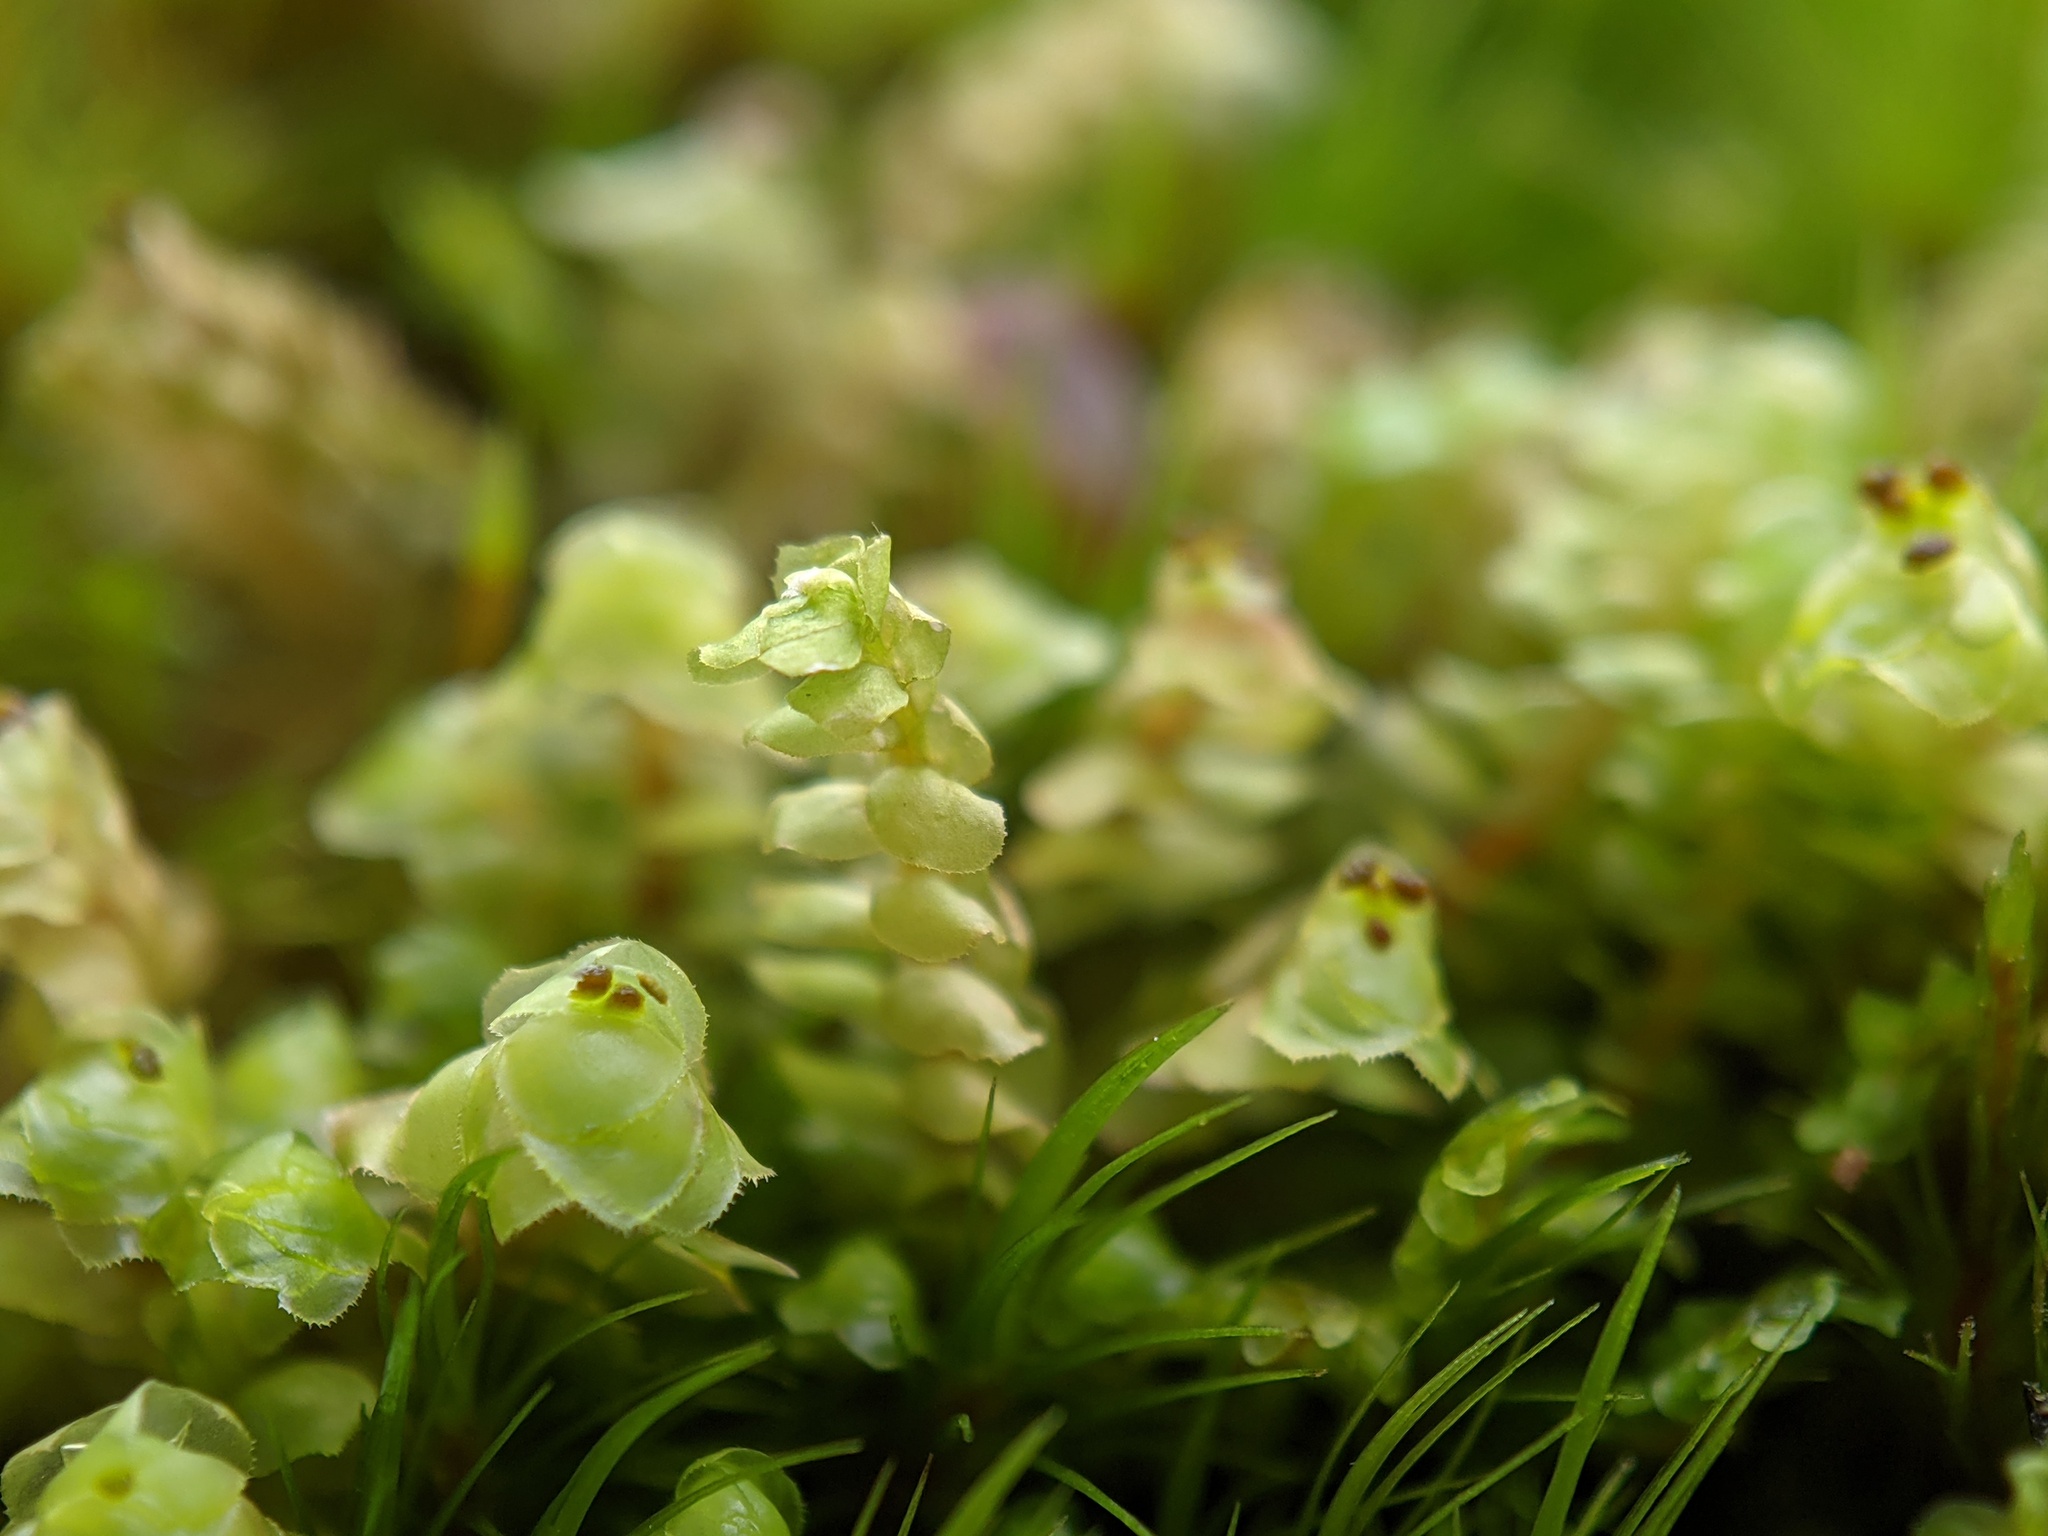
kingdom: Plantae
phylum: Marchantiophyta
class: Jungermanniopsida
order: Jungermanniales
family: Scapaniaceae
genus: Scapania
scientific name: Scapania nemorea
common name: Grove earwort
